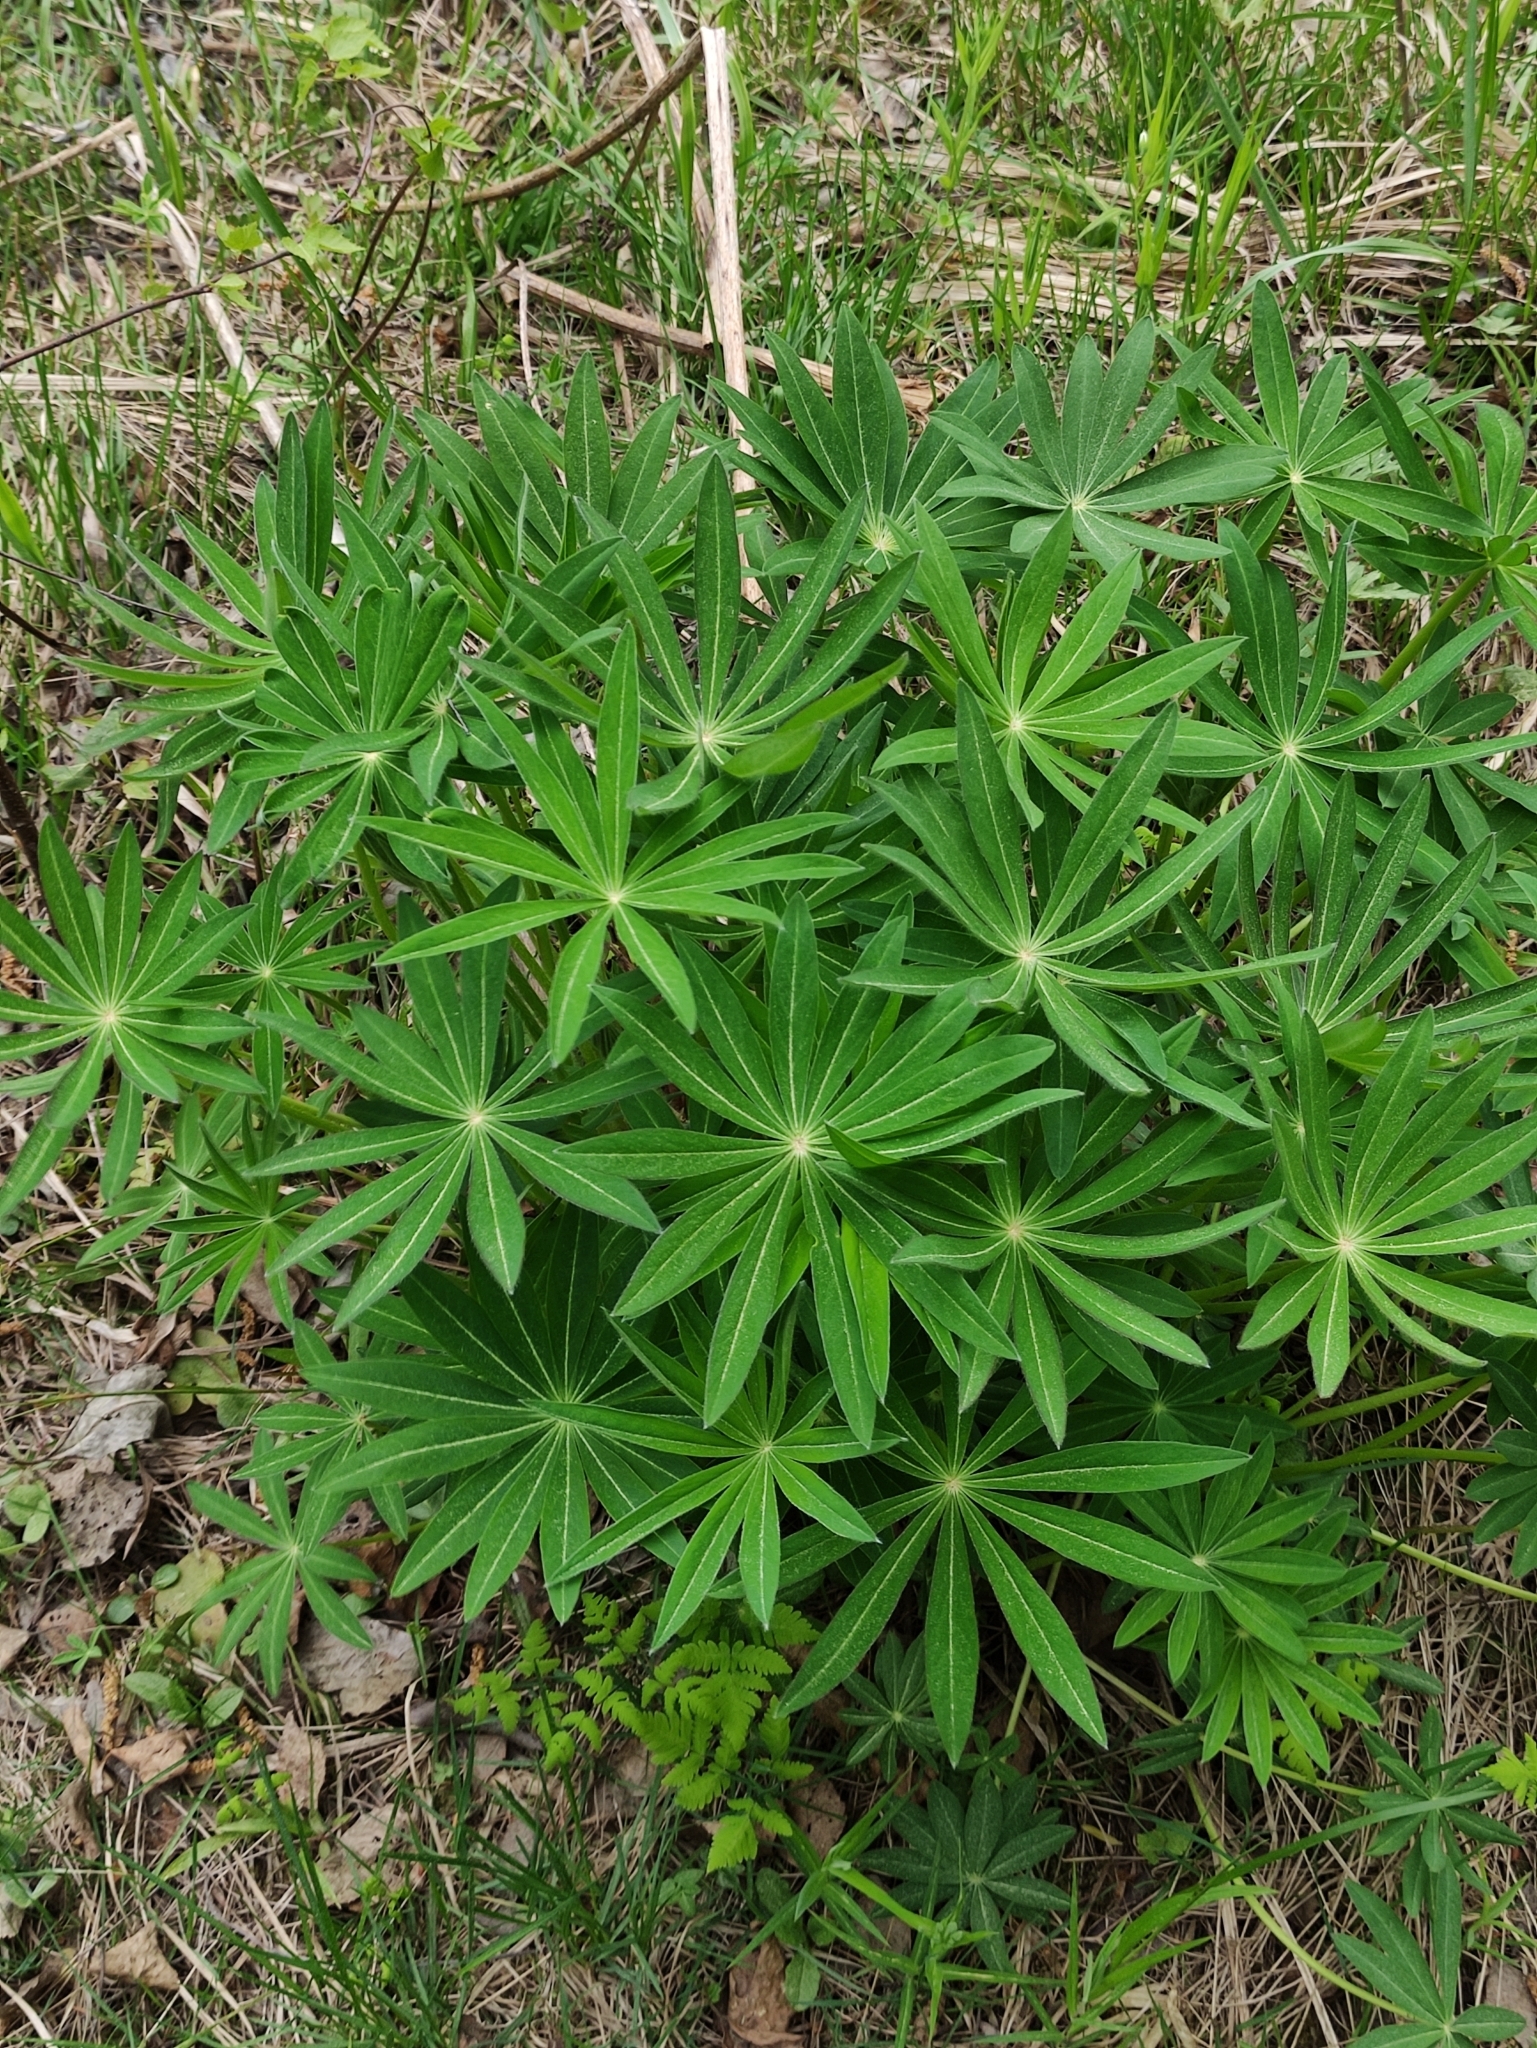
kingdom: Plantae
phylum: Tracheophyta
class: Magnoliopsida
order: Fabales
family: Fabaceae
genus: Lupinus
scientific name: Lupinus polyphyllus
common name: Garden lupin
